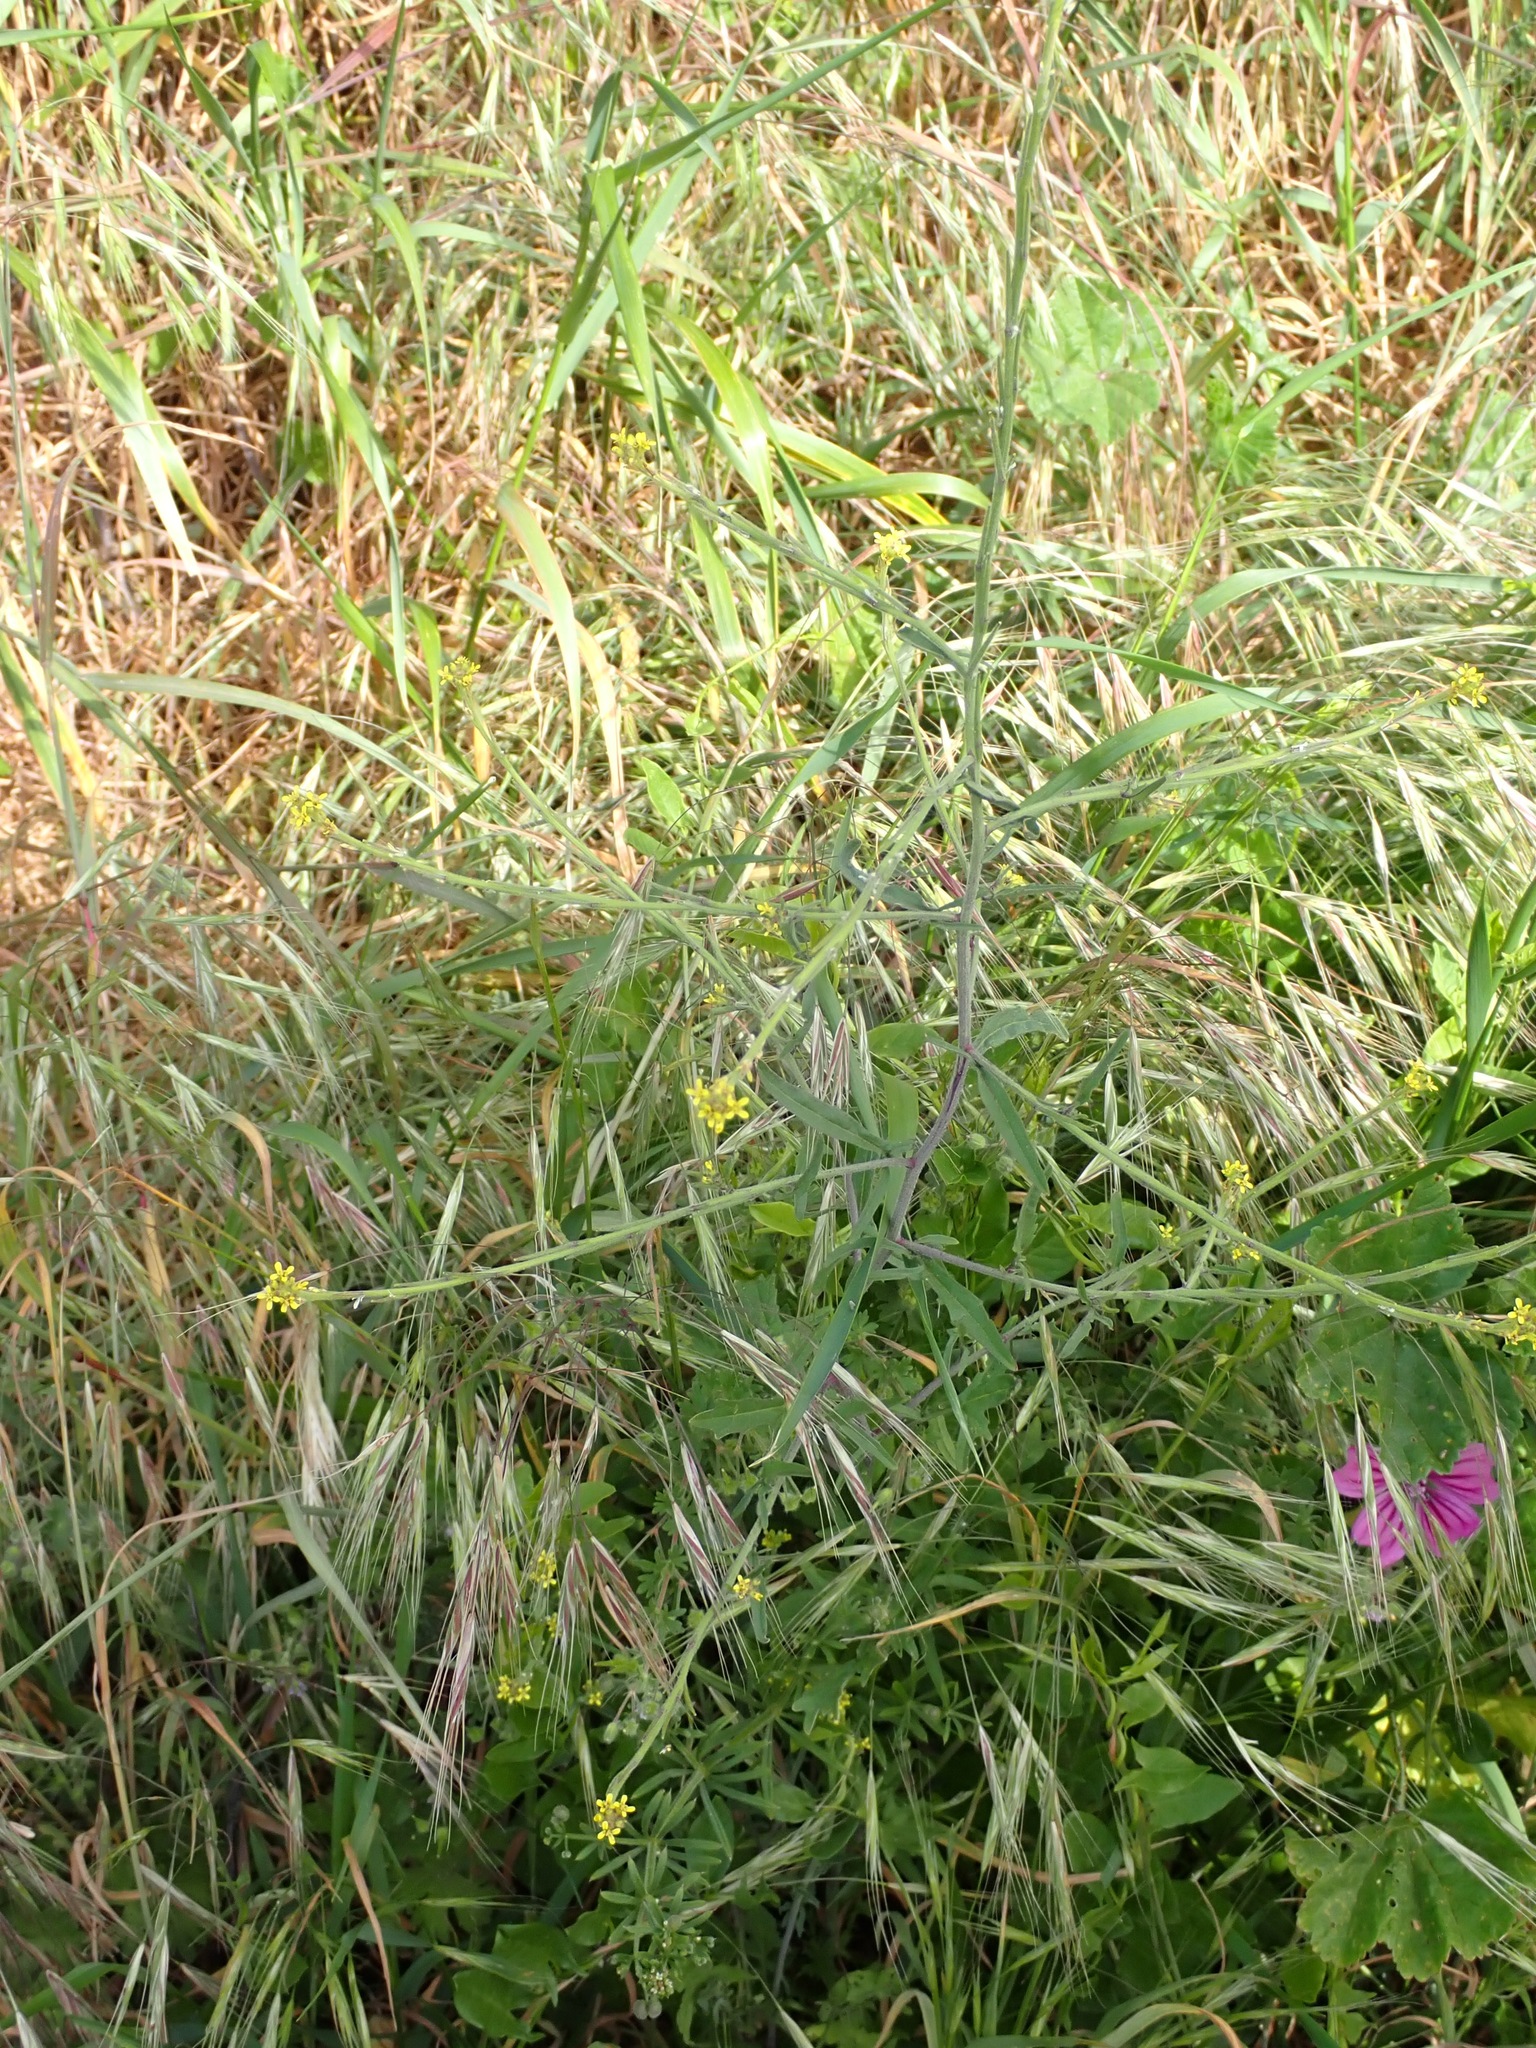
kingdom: Plantae
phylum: Tracheophyta
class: Magnoliopsida
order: Brassicales
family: Brassicaceae
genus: Sisymbrium
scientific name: Sisymbrium officinale
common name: Hedge mustard
